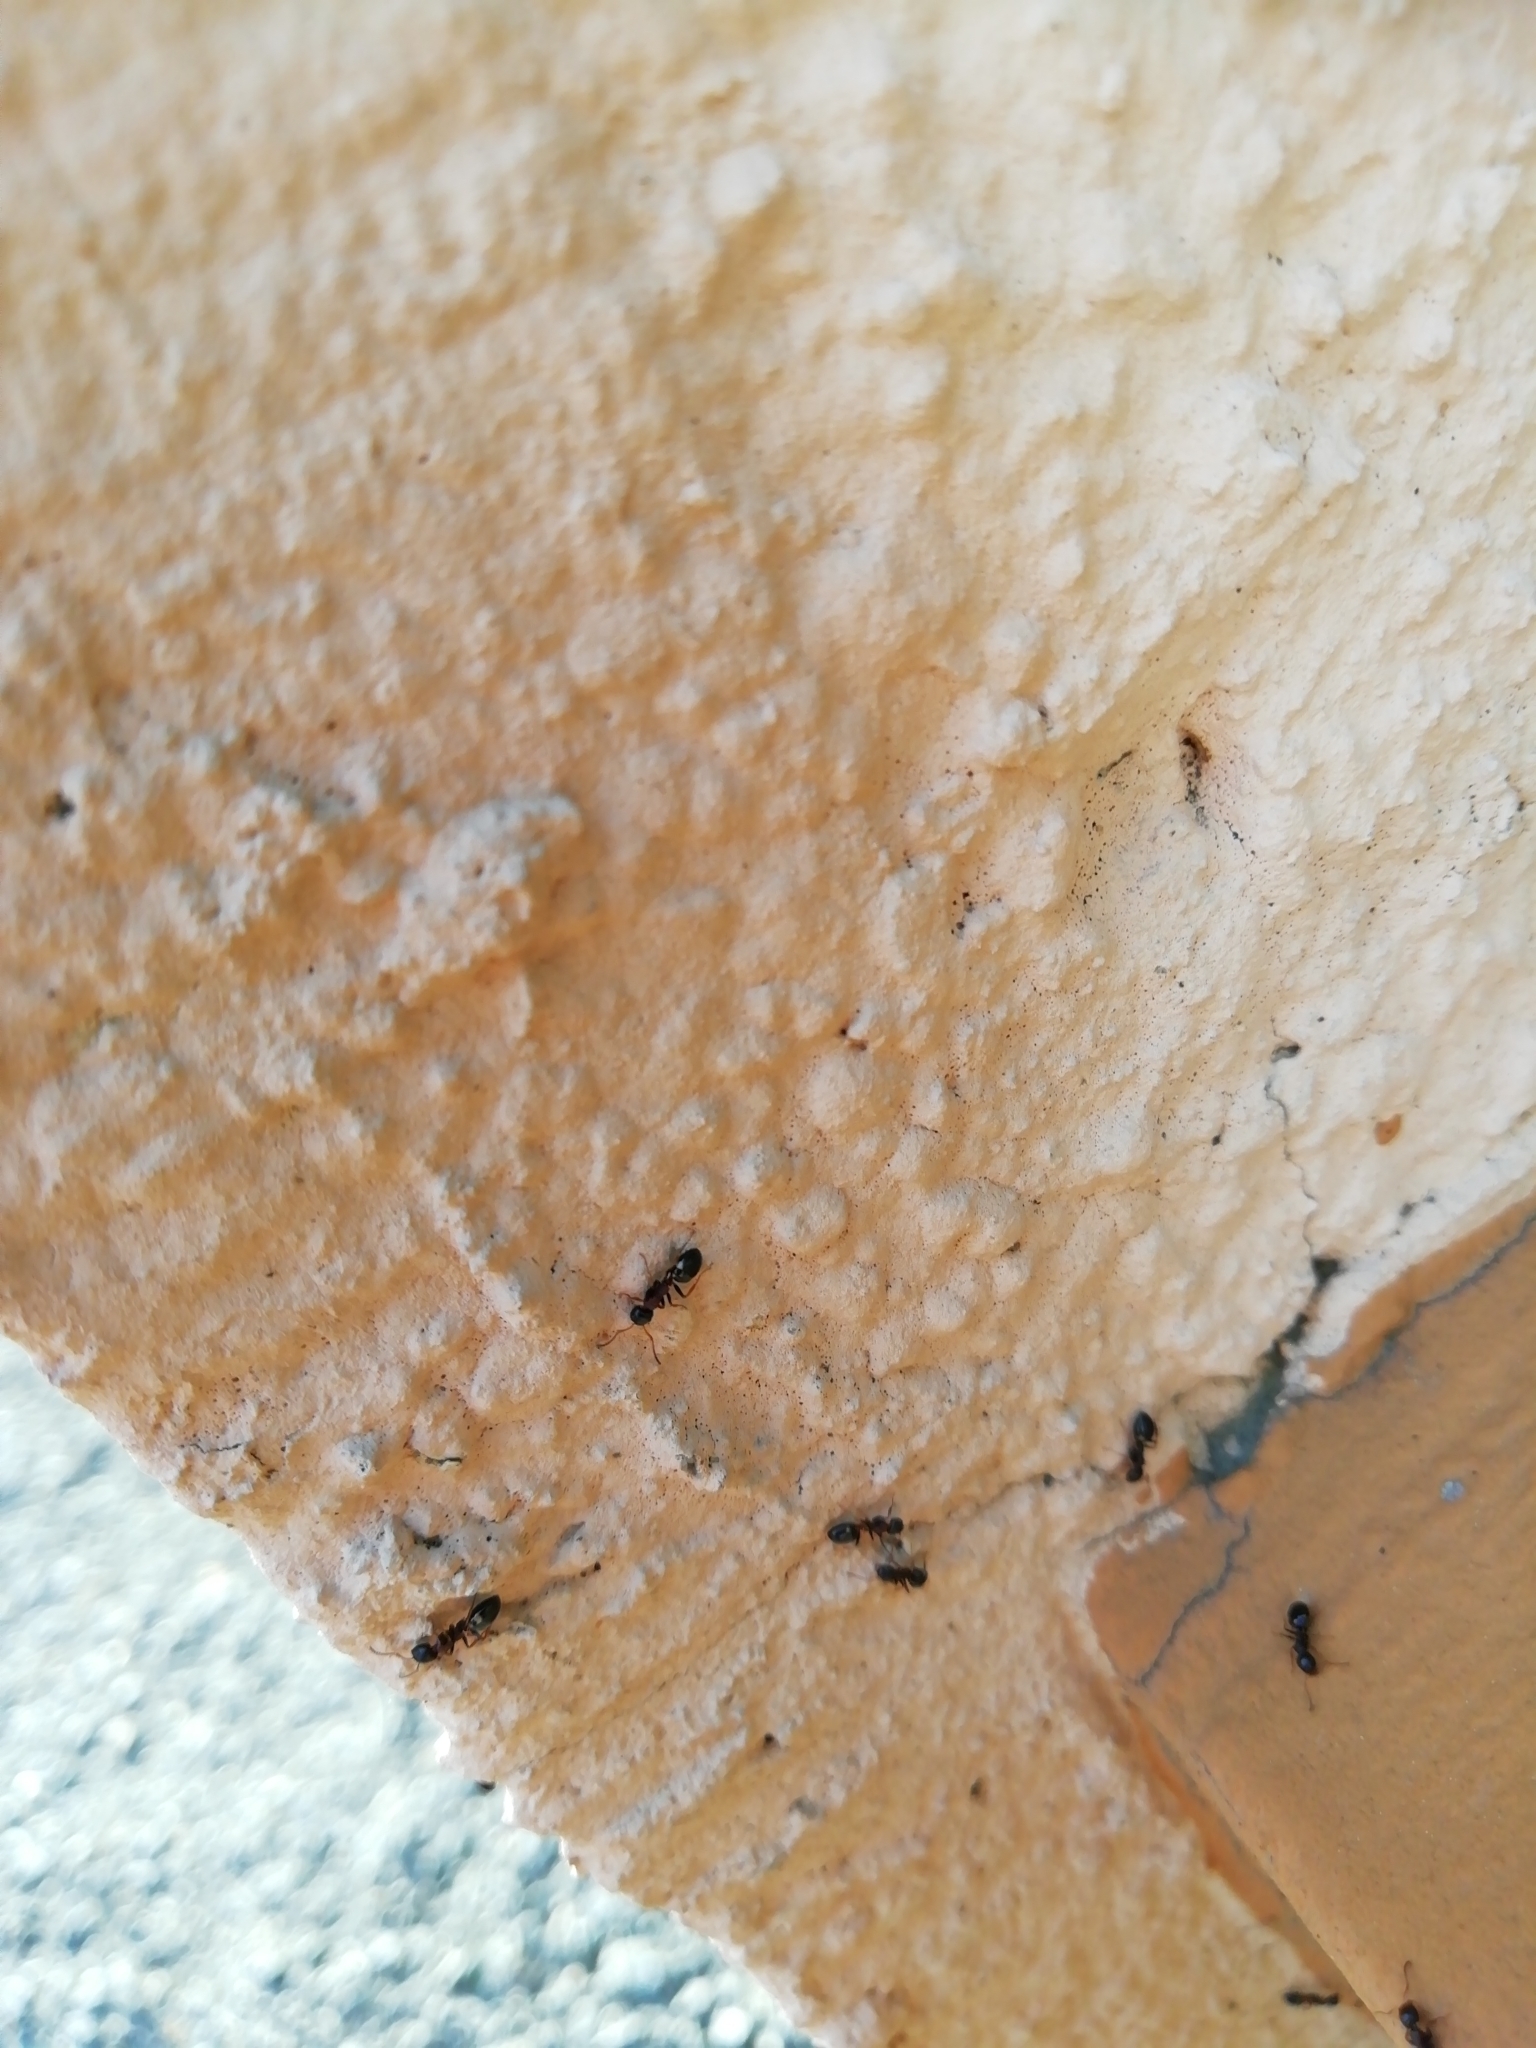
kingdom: Animalia
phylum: Arthropoda
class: Insecta
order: Hymenoptera
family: Formicidae
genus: Dolichoderus
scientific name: Dolichoderus quadripunctatus
